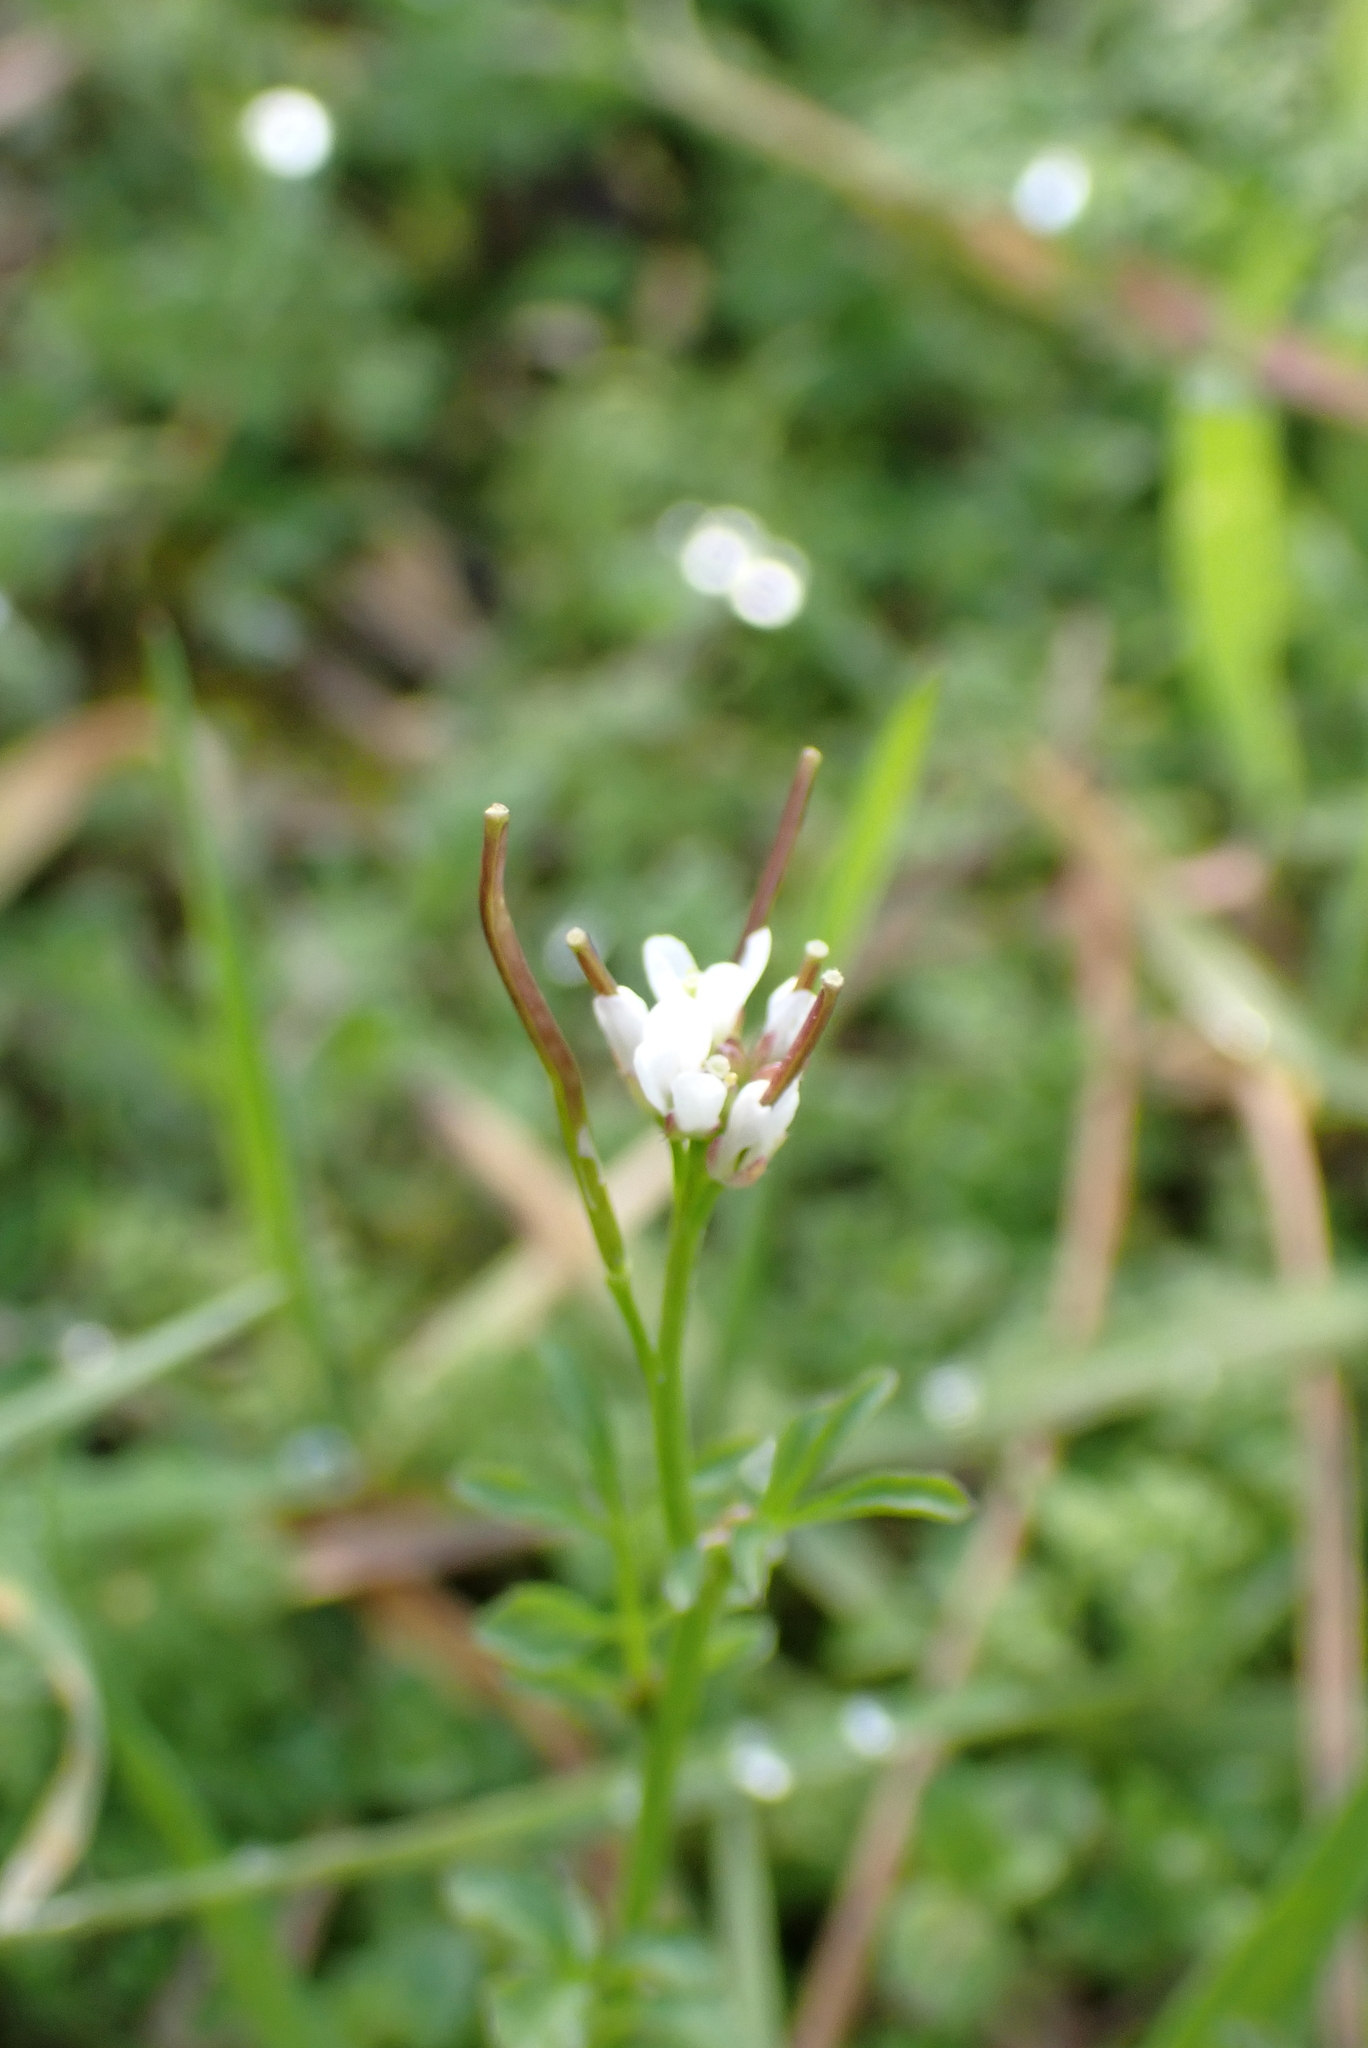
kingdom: Plantae
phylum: Tracheophyta
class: Magnoliopsida
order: Brassicales
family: Brassicaceae
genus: Cardamine
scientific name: Cardamine hirsuta
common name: Hairy bittercress
